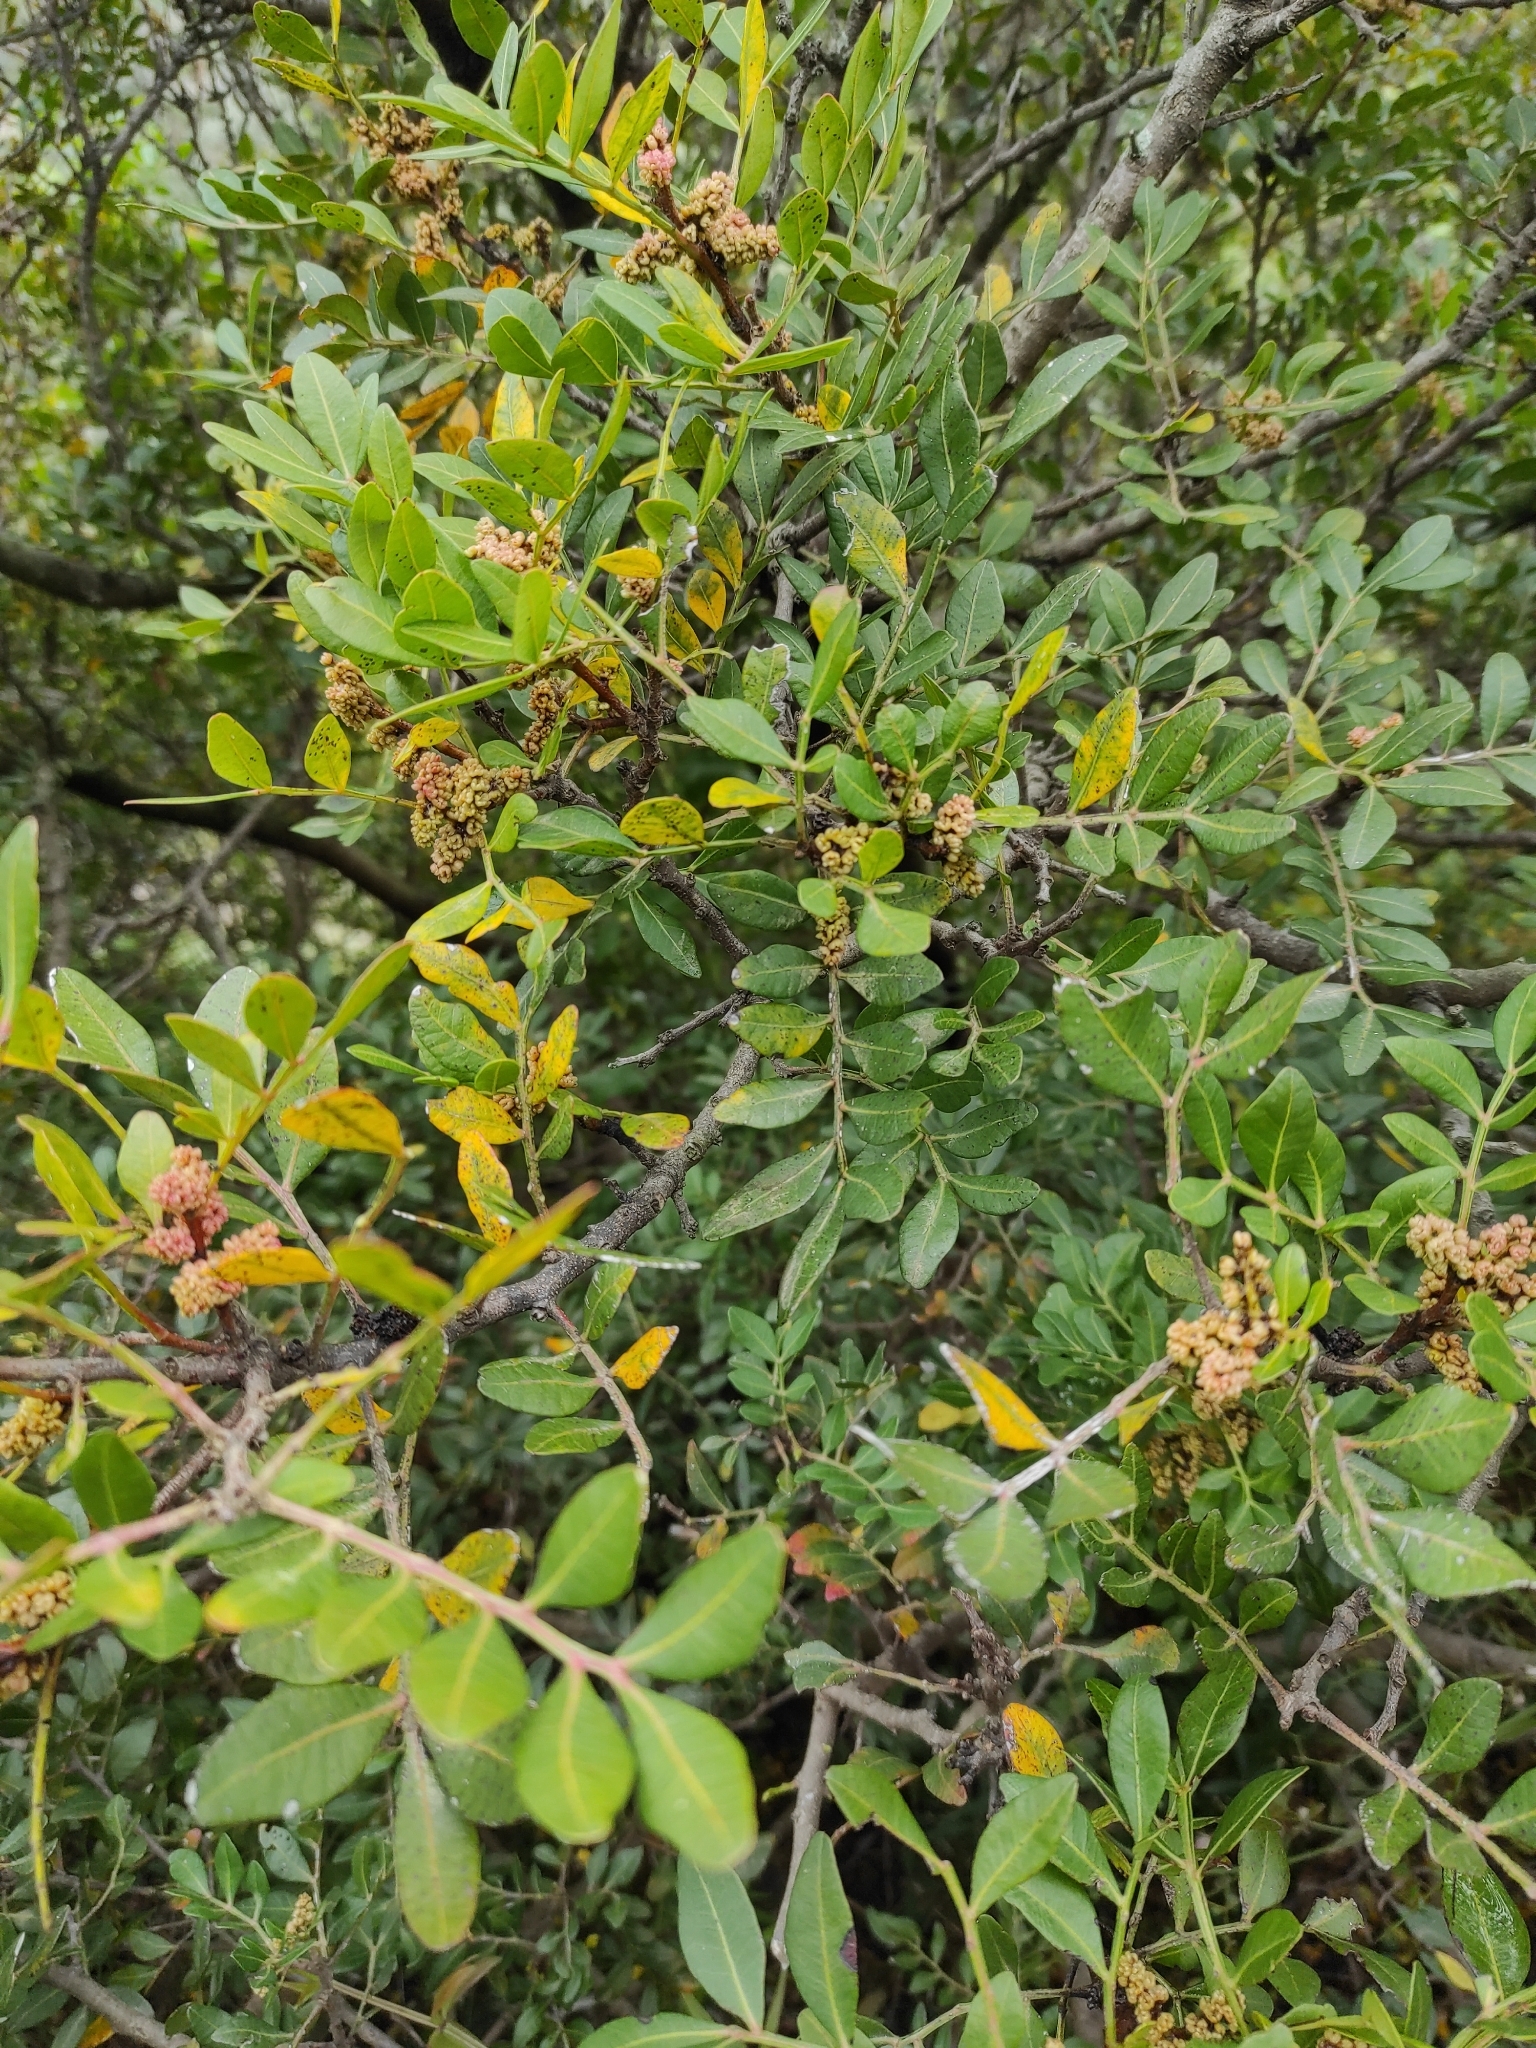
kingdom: Plantae
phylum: Tracheophyta
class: Magnoliopsida
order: Sapindales
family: Anacardiaceae
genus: Pistacia
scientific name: Pistacia lentiscus
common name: Lentisk
